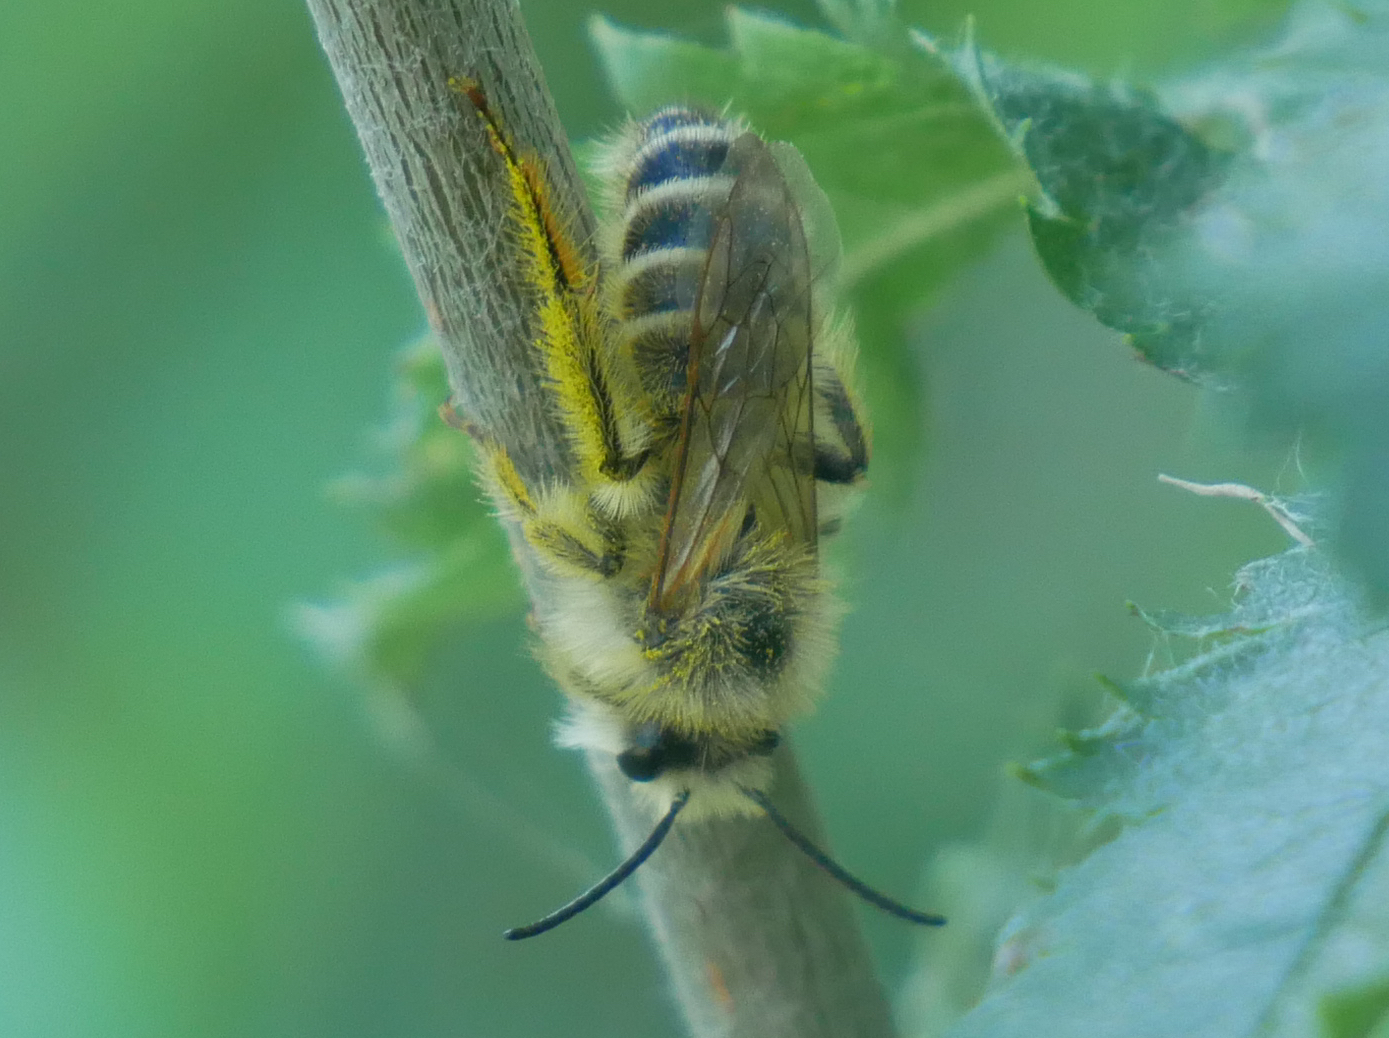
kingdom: Animalia
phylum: Arthropoda
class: Insecta
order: Hymenoptera
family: Melittidae
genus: Dasypoda
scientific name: Dasypoda hirtipes
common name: Pantaloon bee
